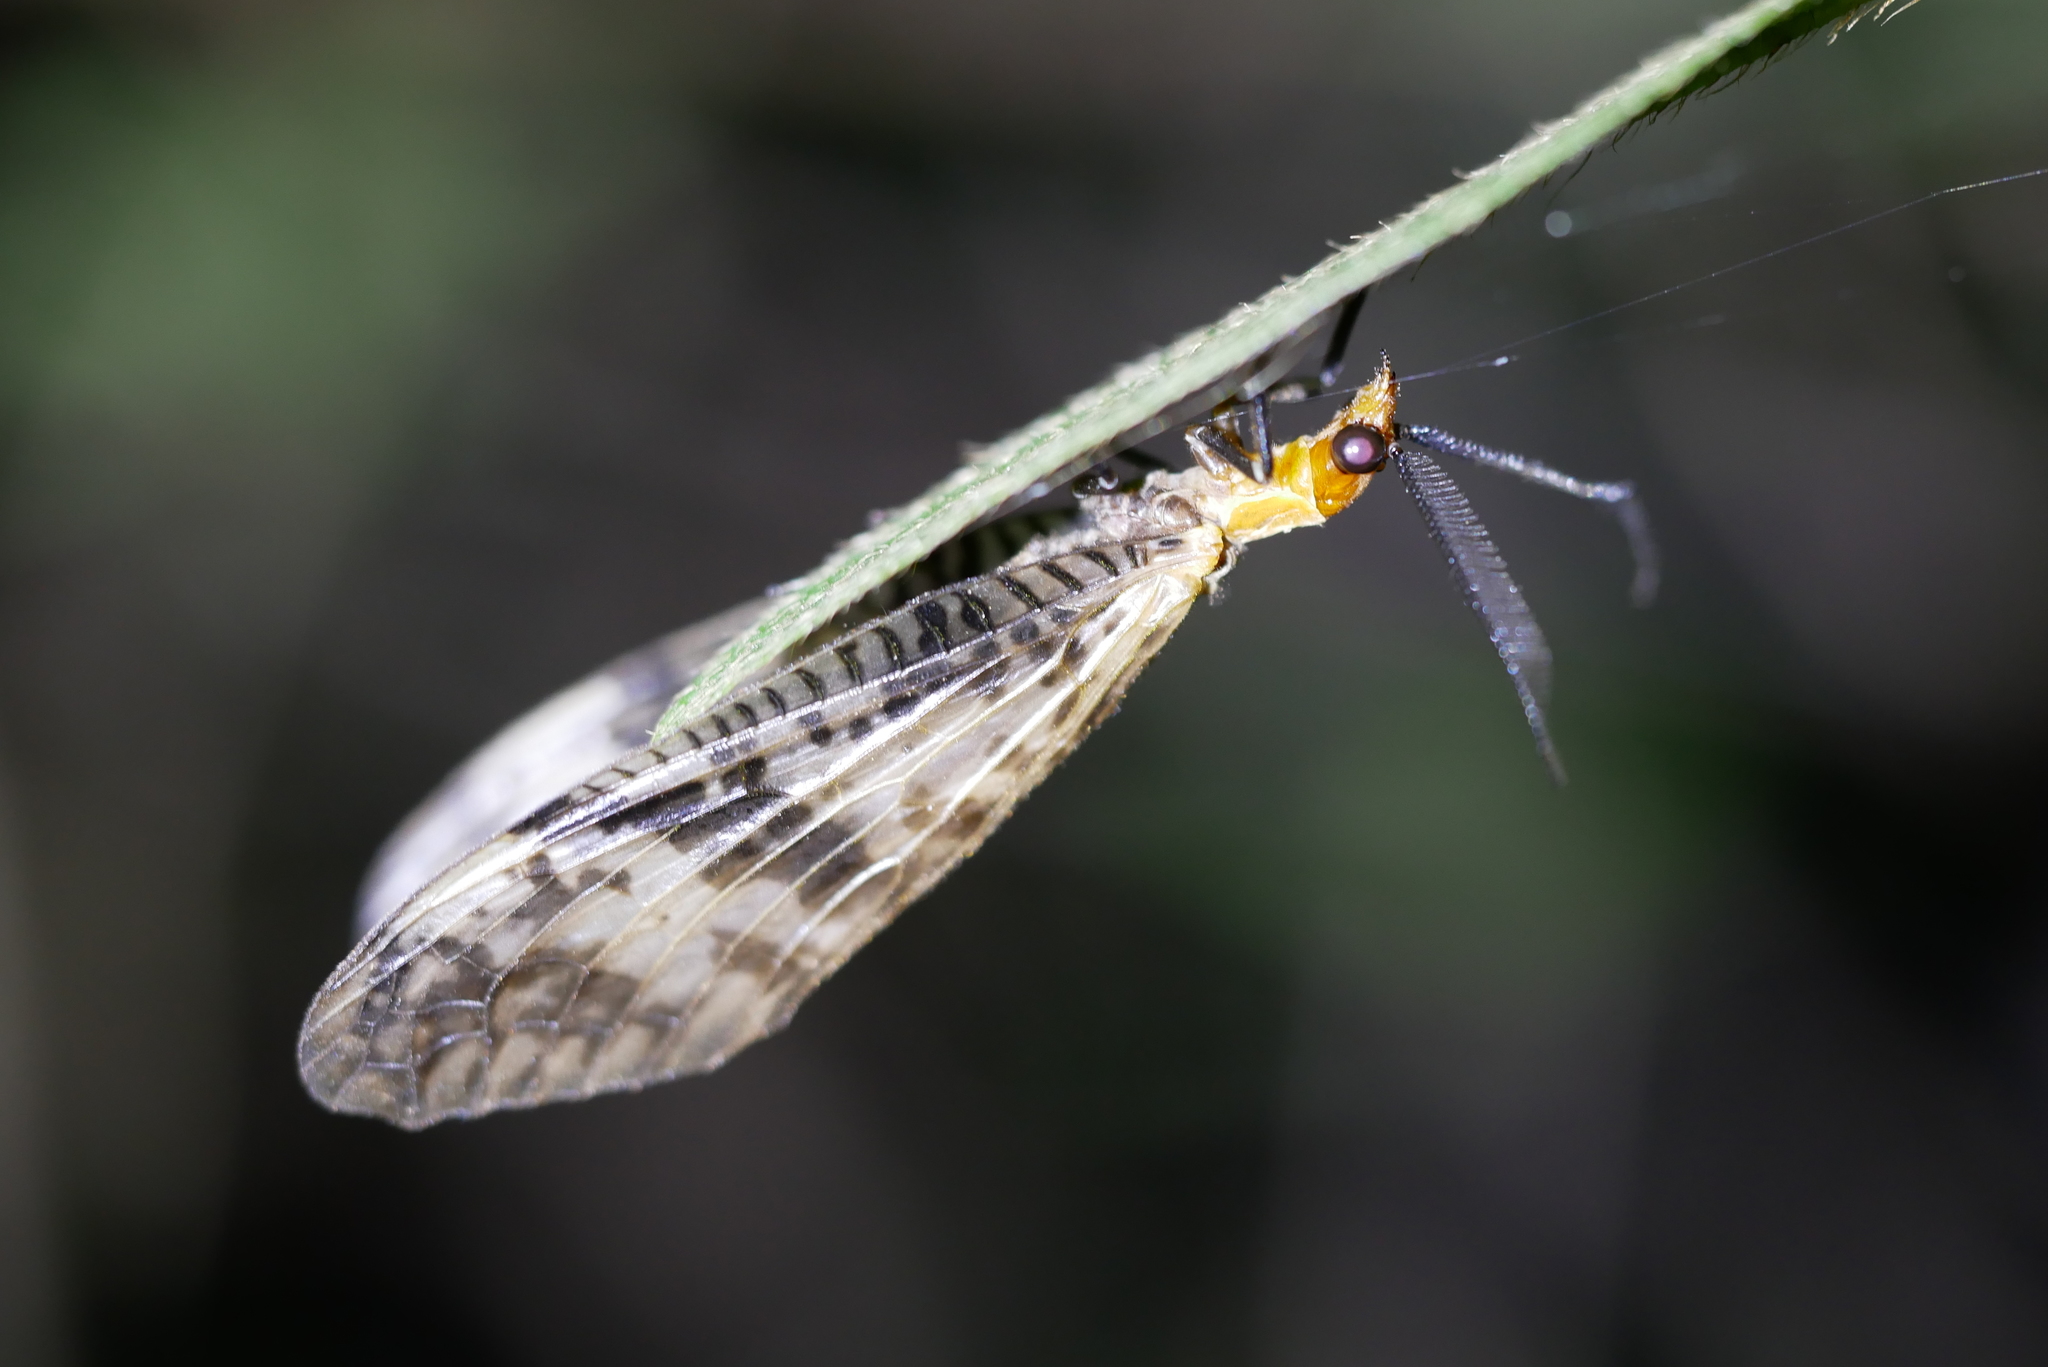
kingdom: Animalia
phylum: Arthropoda
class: Insecta
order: Megaloptera
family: Corydalidae
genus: Neochauliodes
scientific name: Neochauliodes formosanus
